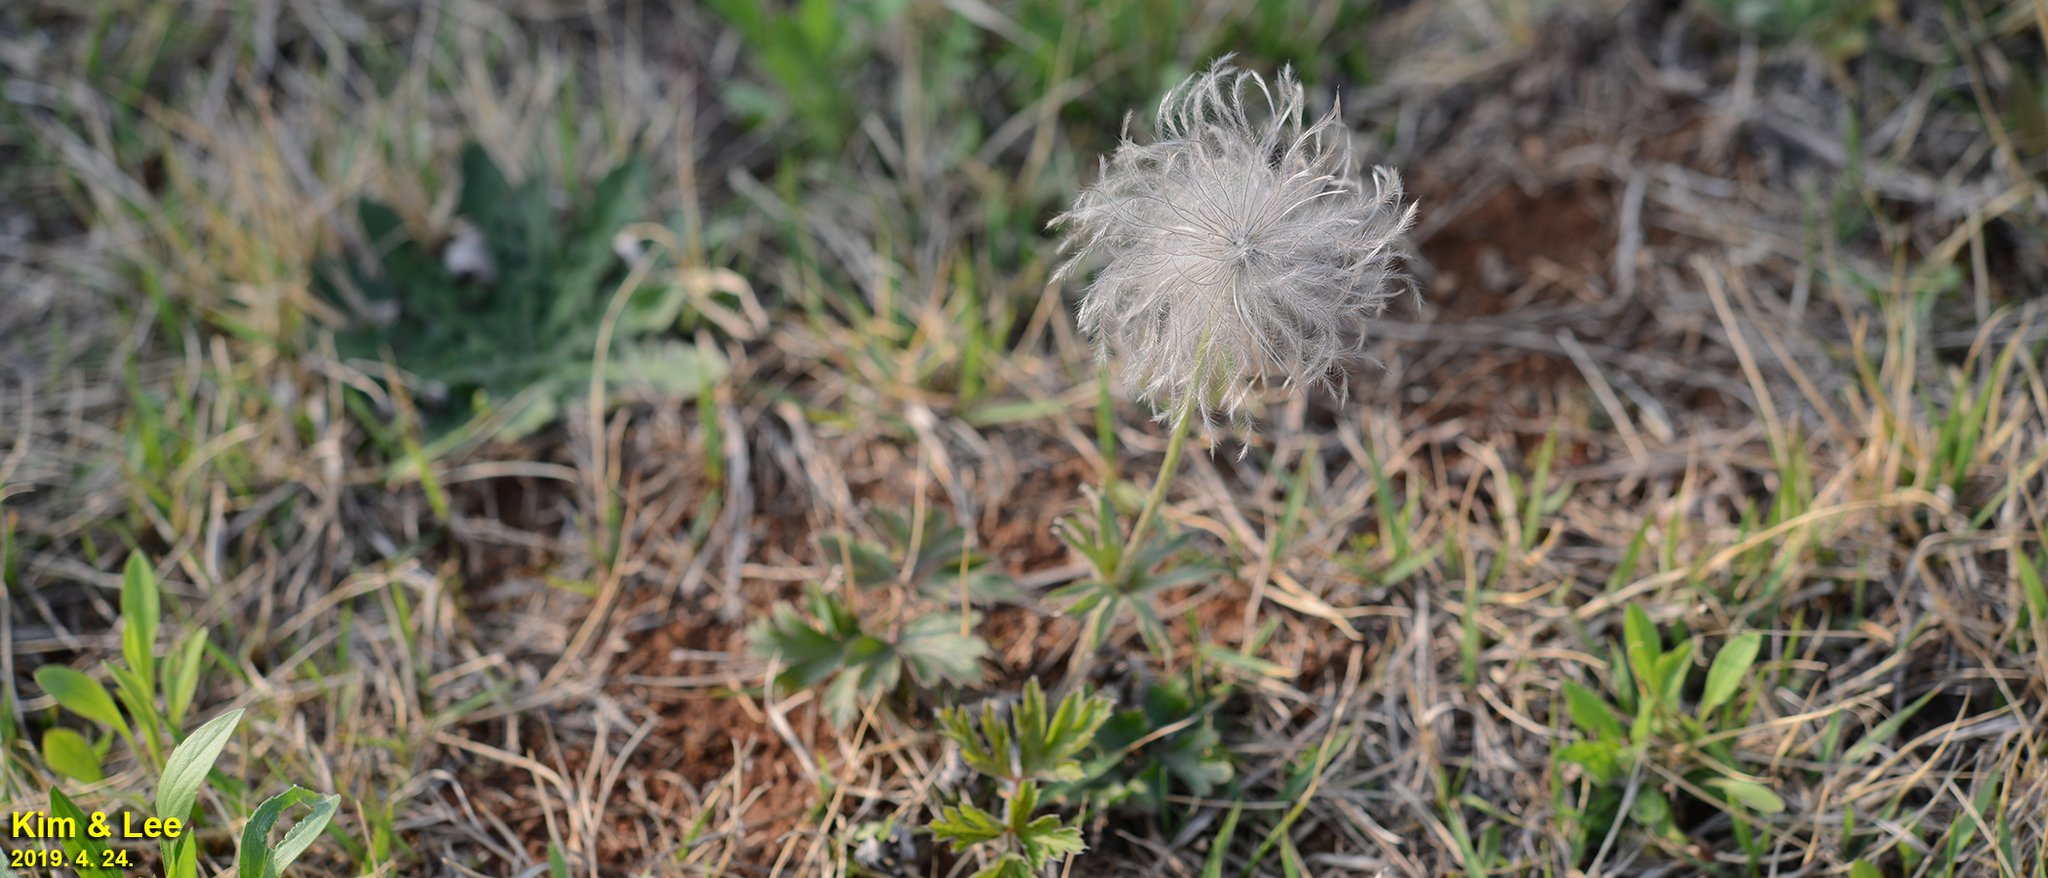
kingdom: Plantae
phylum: Tracheophyta
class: Magnoliopsida
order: Ranunculales
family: Ranunculaceae
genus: Pulsatilla
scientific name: Pulsatilla cernua
